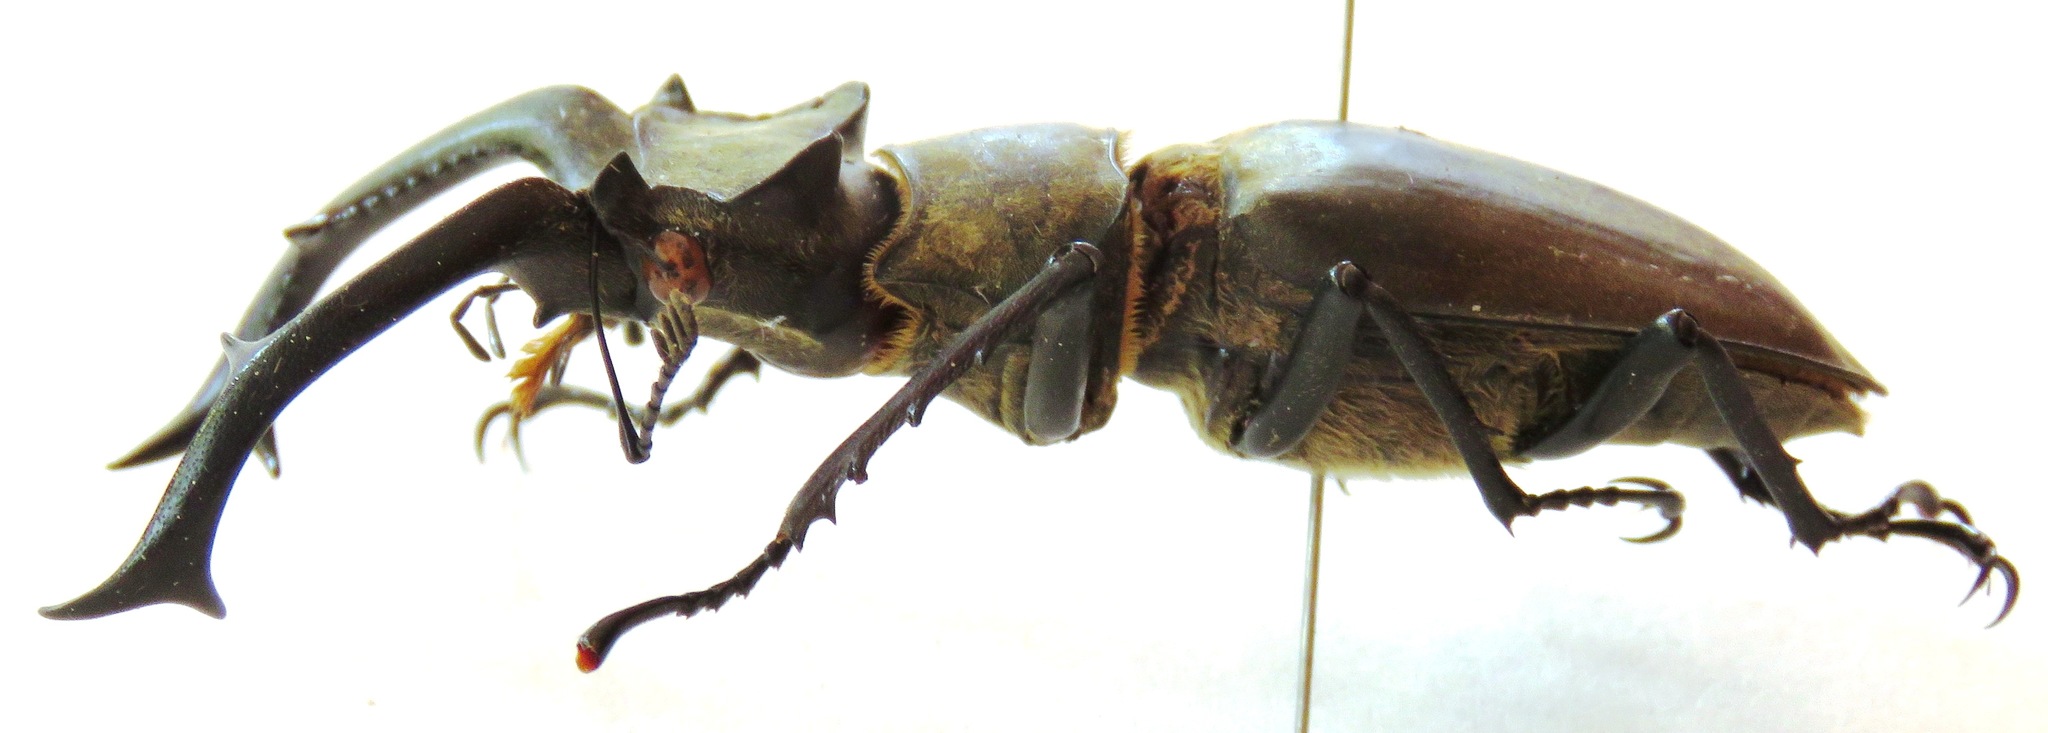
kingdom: Animalia
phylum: Arthropoda
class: Insecta
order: Coleoptera
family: Lucanidae
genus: Lucanus
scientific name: Lucanus nobilis
